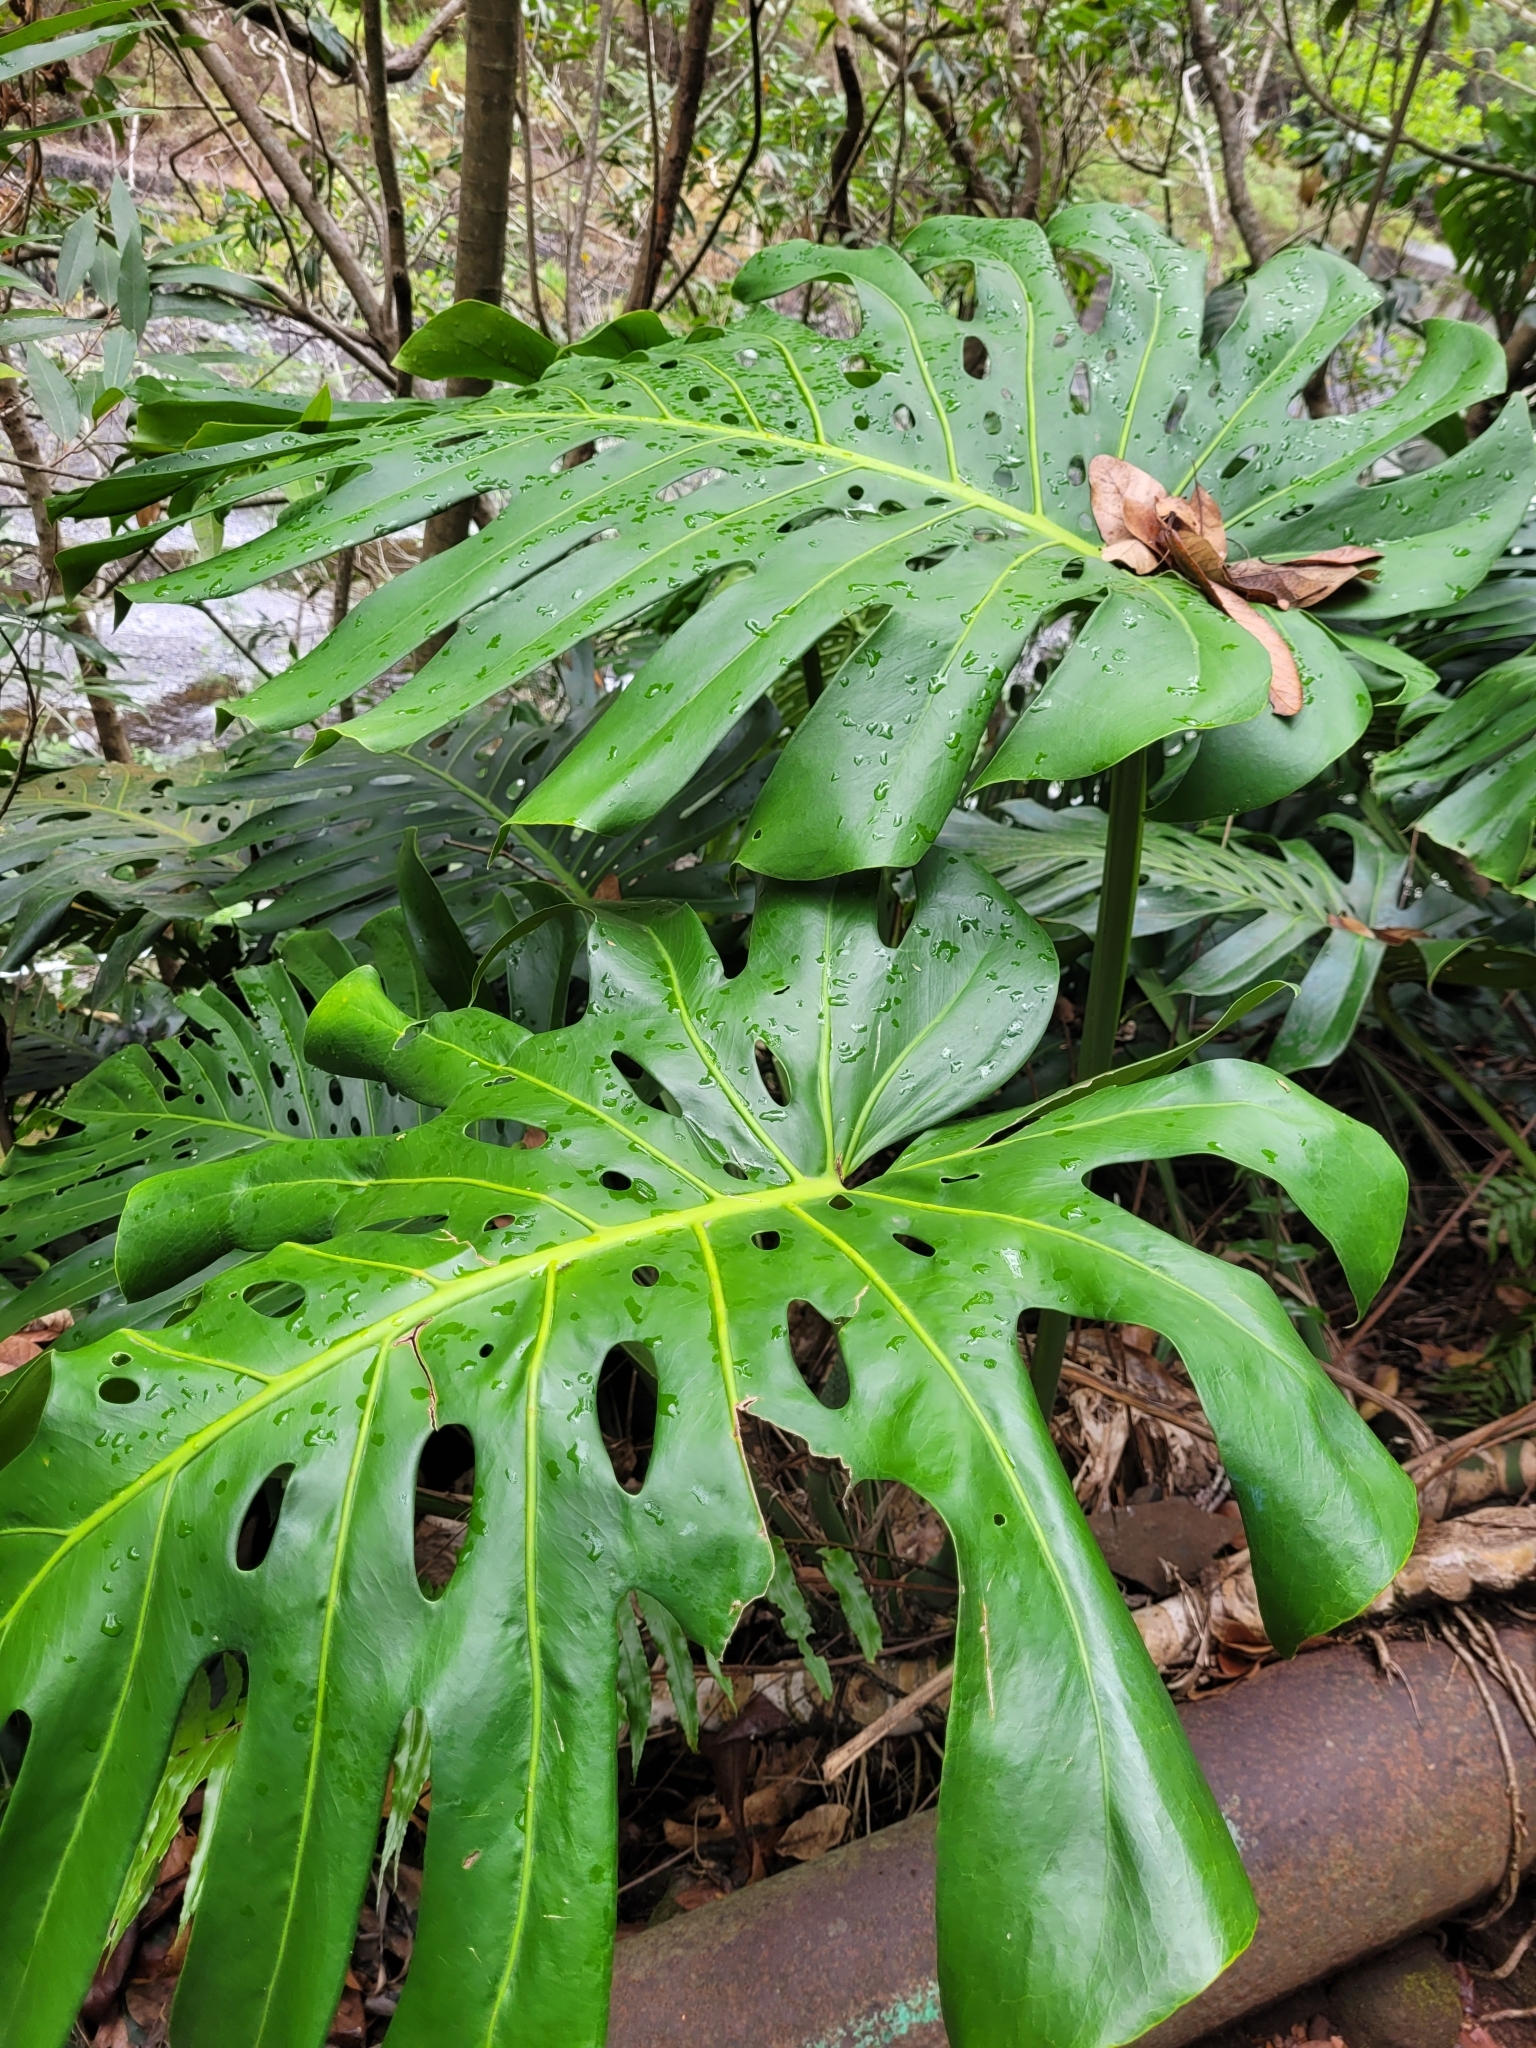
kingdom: Plantae
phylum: Tracheophyta
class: Liliopsida
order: Alismatales
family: Araceae
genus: Monstera
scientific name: Monstera deliciosa
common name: Cut-leaf-philodendron
